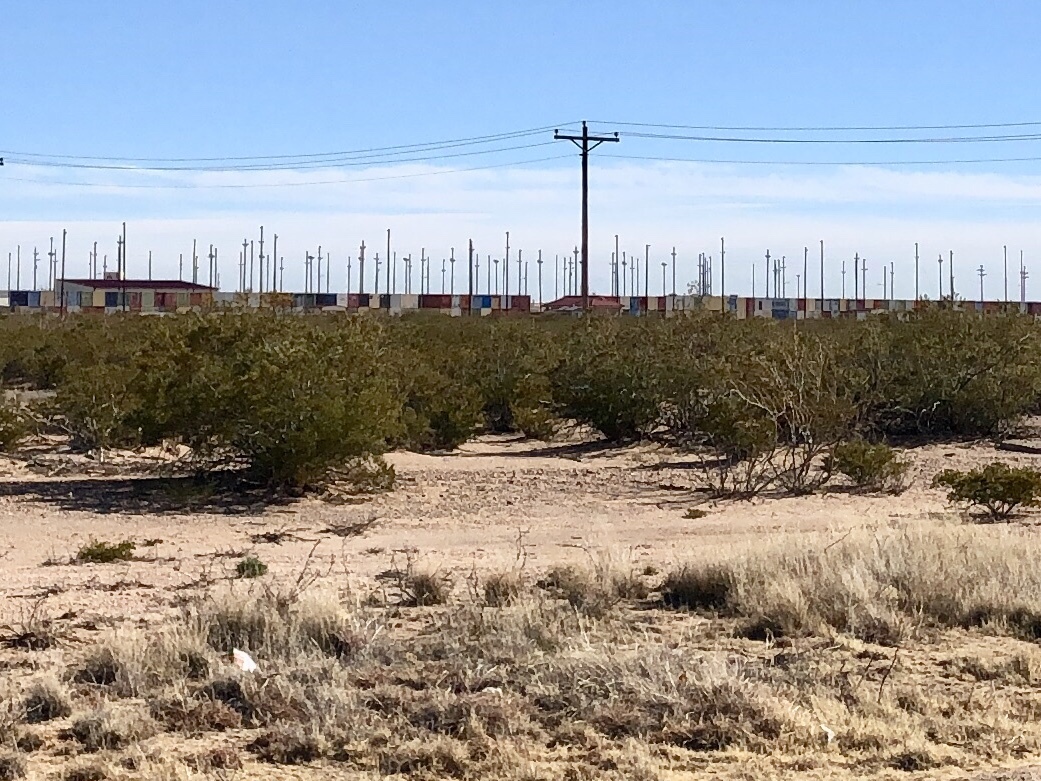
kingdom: Plantae
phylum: Tracheophyta
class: Magnoliopsida
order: Zygophyllales
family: Zygophyllaceae
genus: Larrea
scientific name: Larrea tridentata
